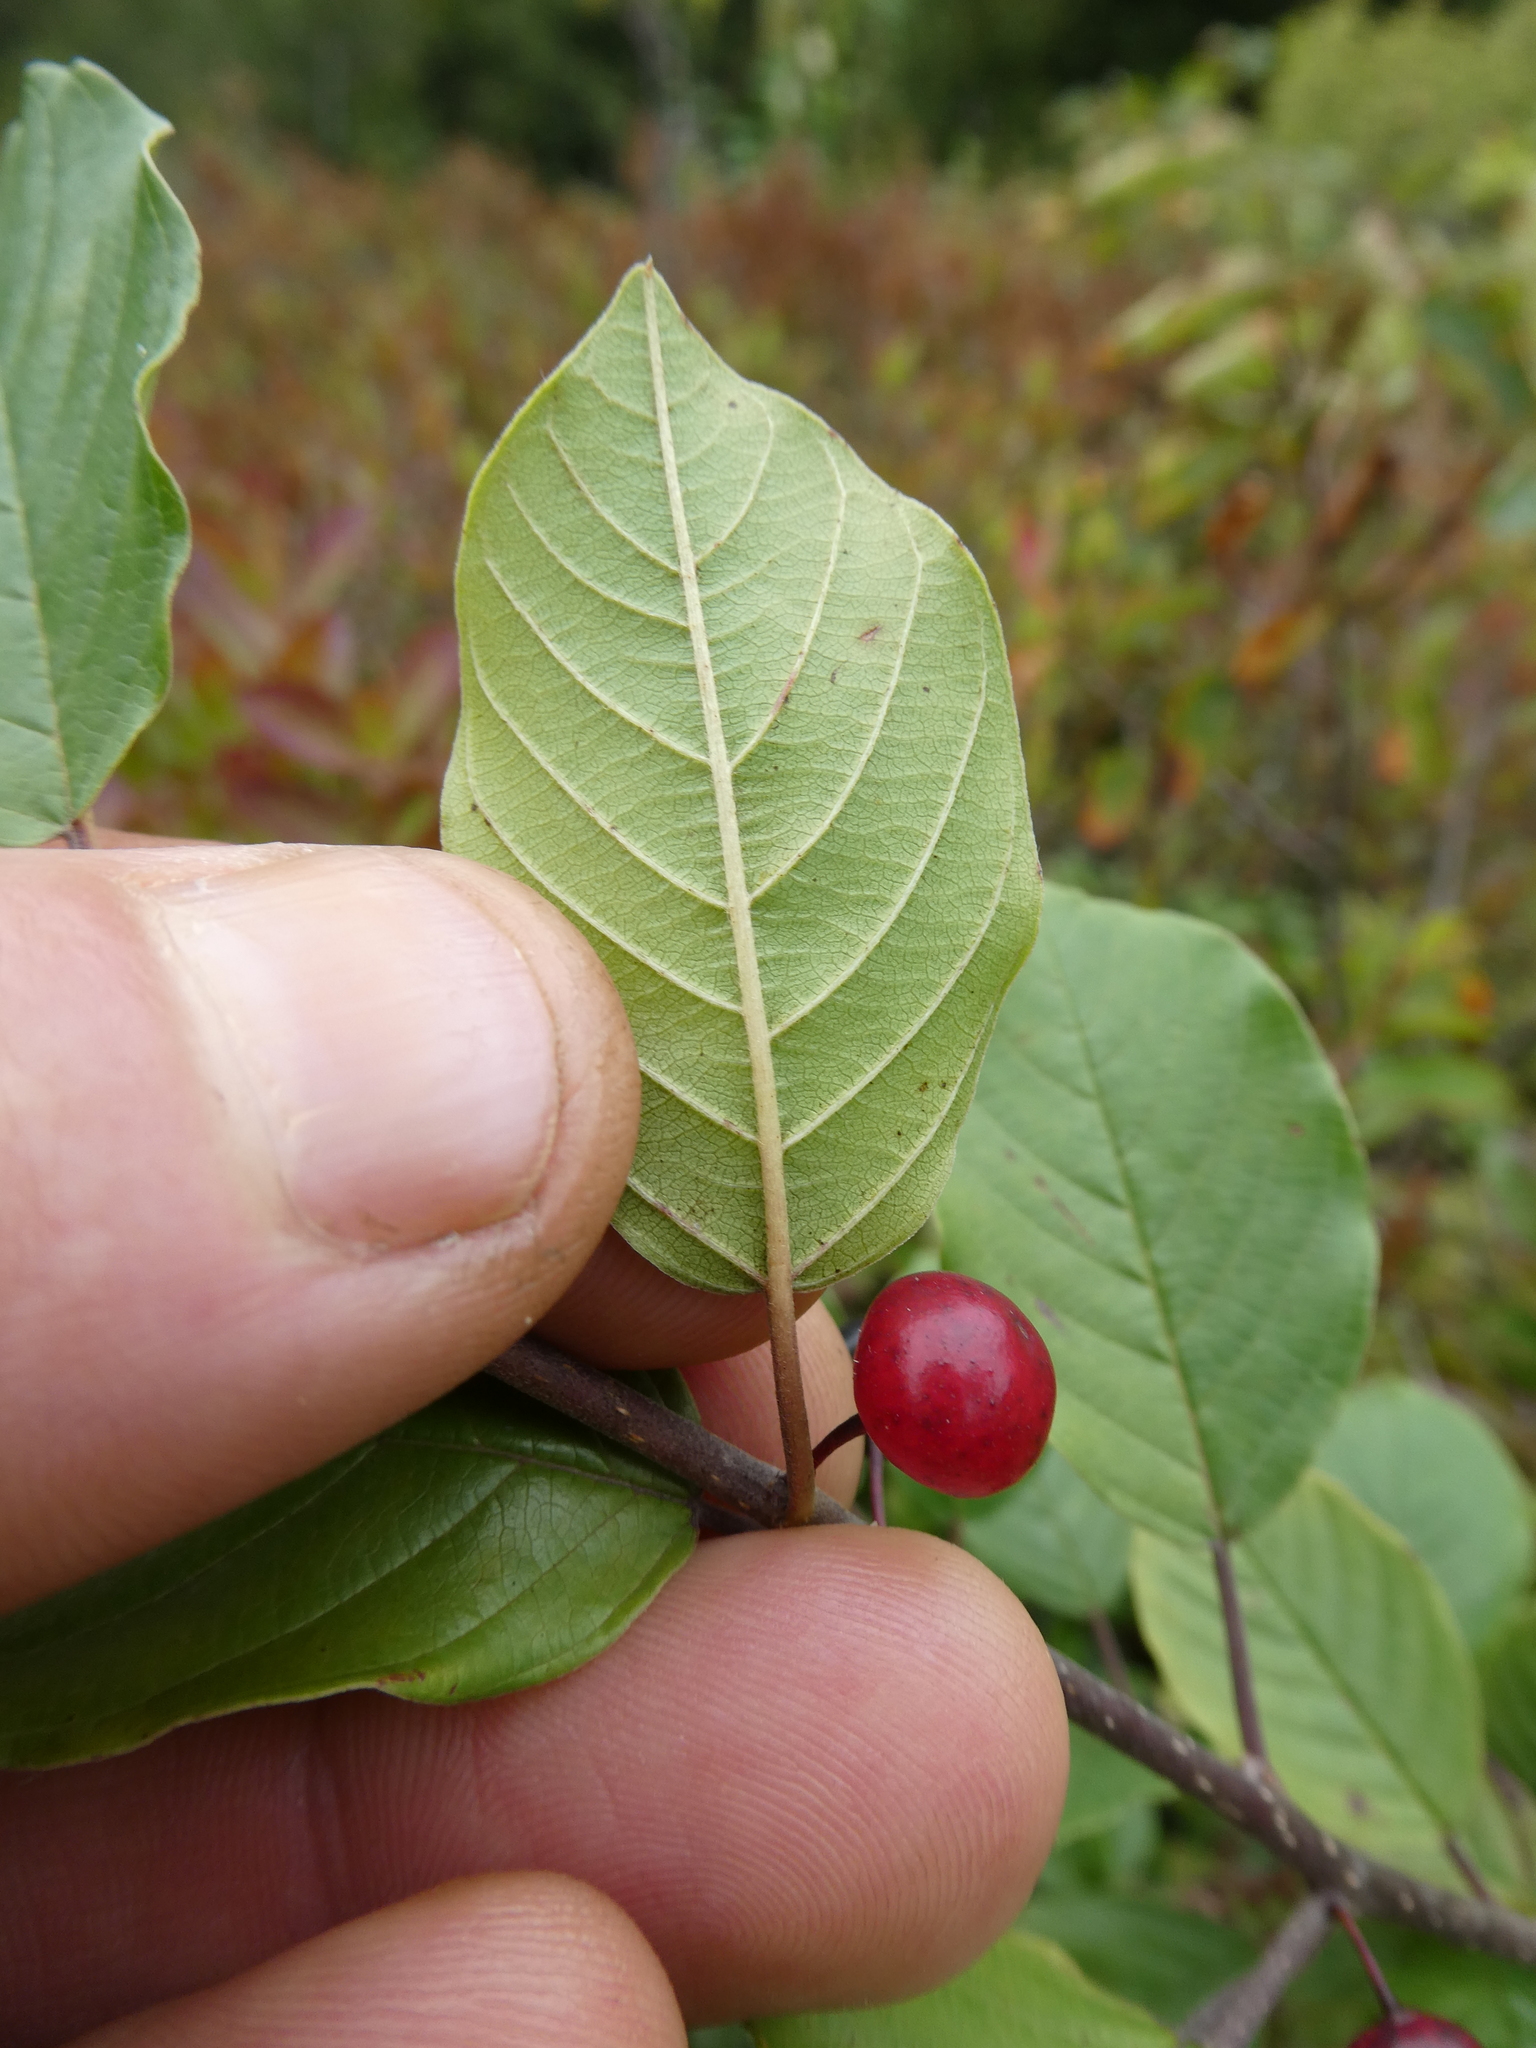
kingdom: Plantae
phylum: Tracheophyta
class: Magnoliopsida
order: Rosales
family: Rhamnaceae
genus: Frangula
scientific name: Frangula alnus
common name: Alder buckthorn
